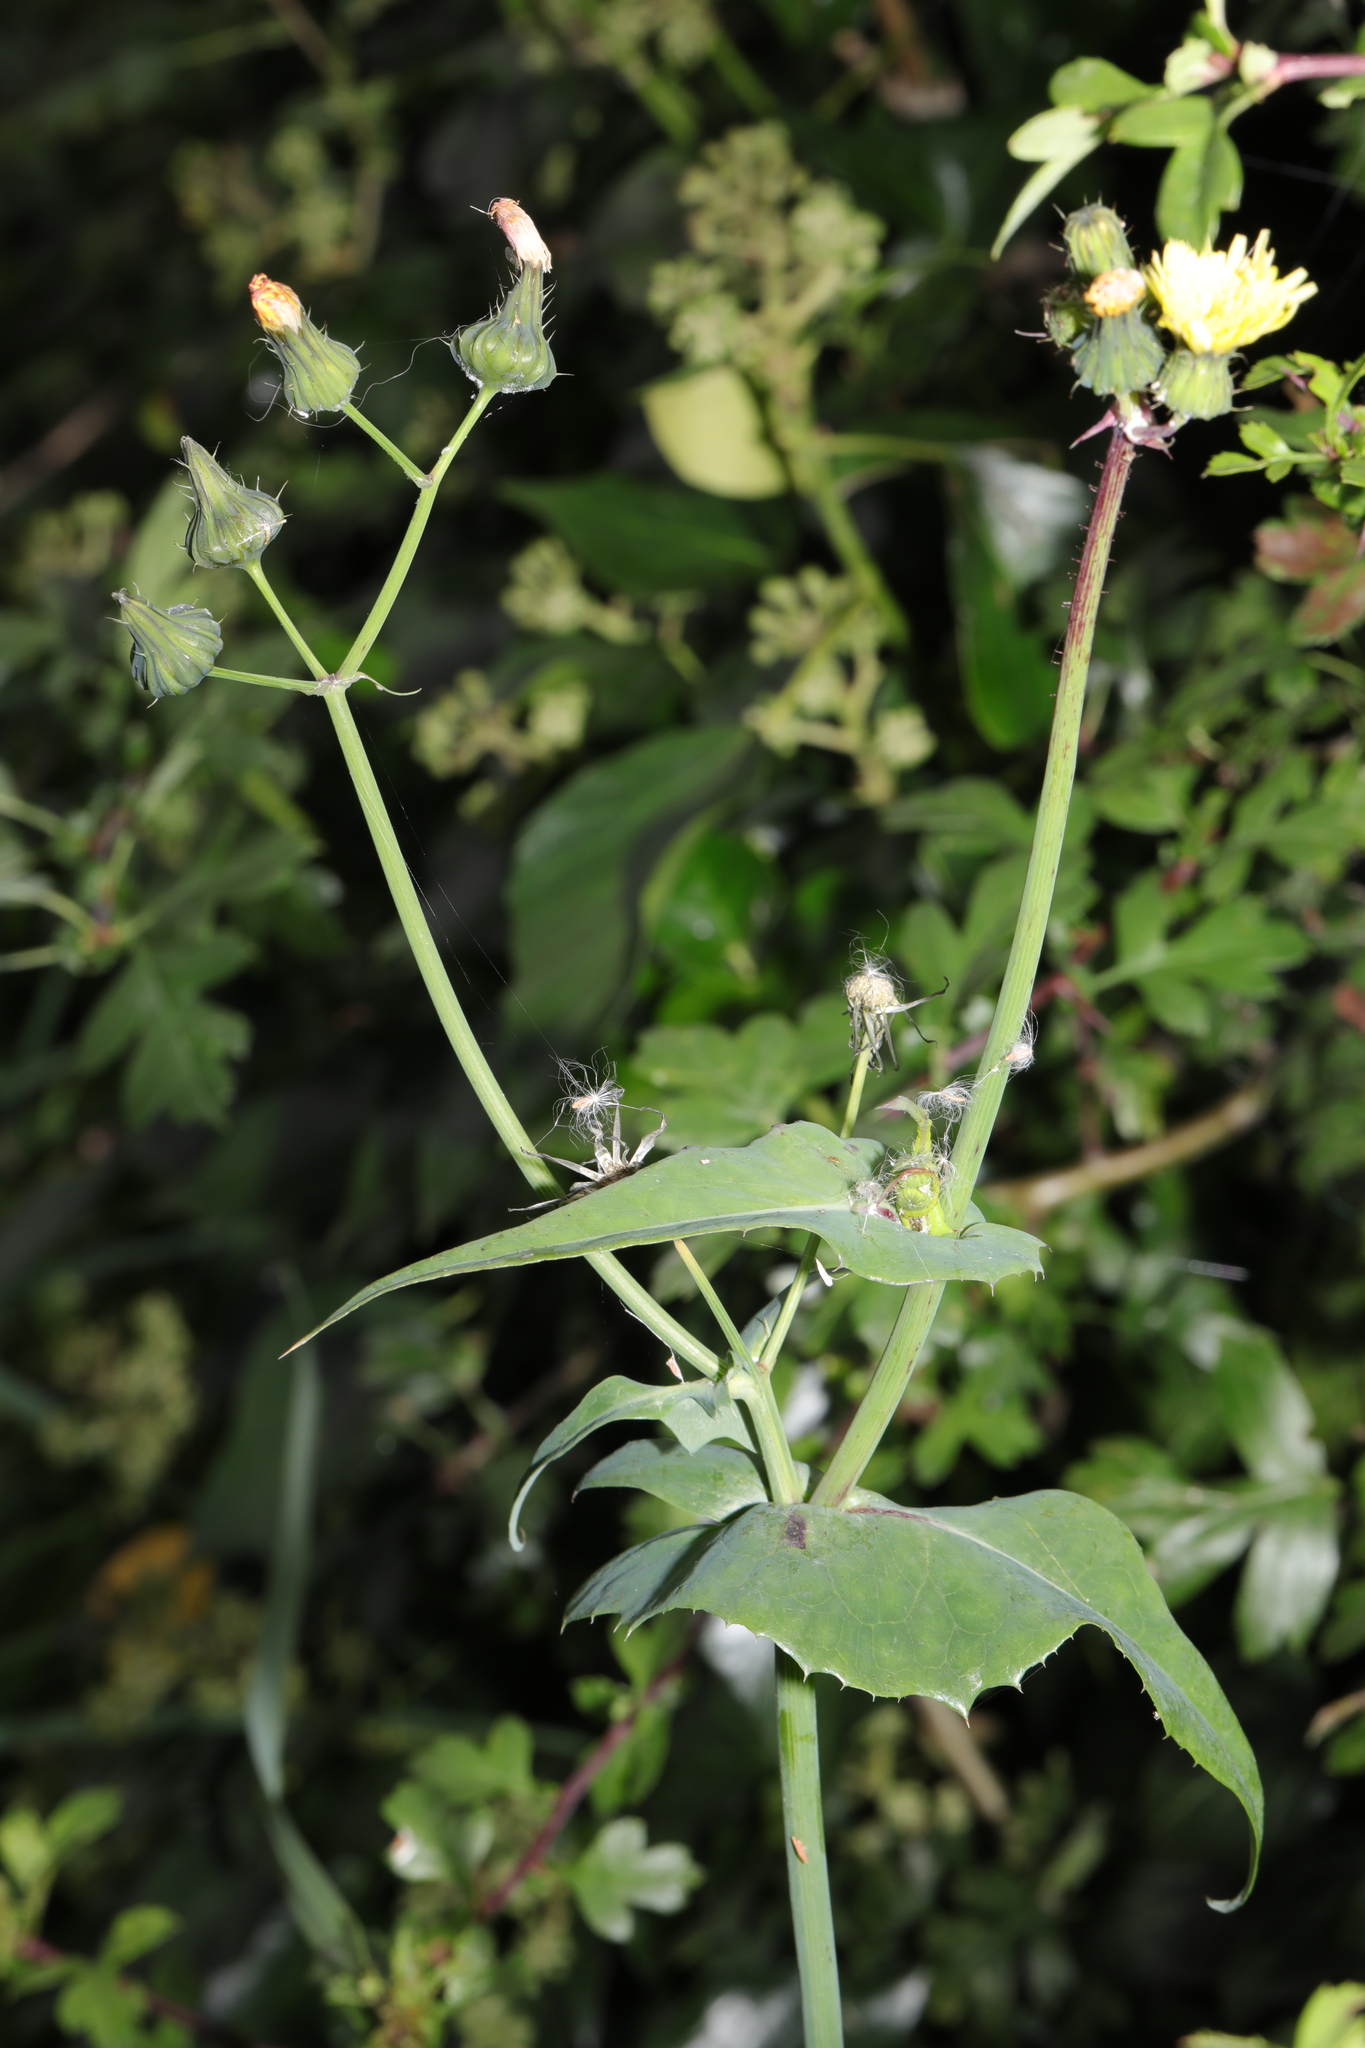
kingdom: Plantae
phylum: Tracheophyta
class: Magnoliopsida
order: Asterales
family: Asteraceae
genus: Sonchus
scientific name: Sonchus oleraceus
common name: Common sowthistle
